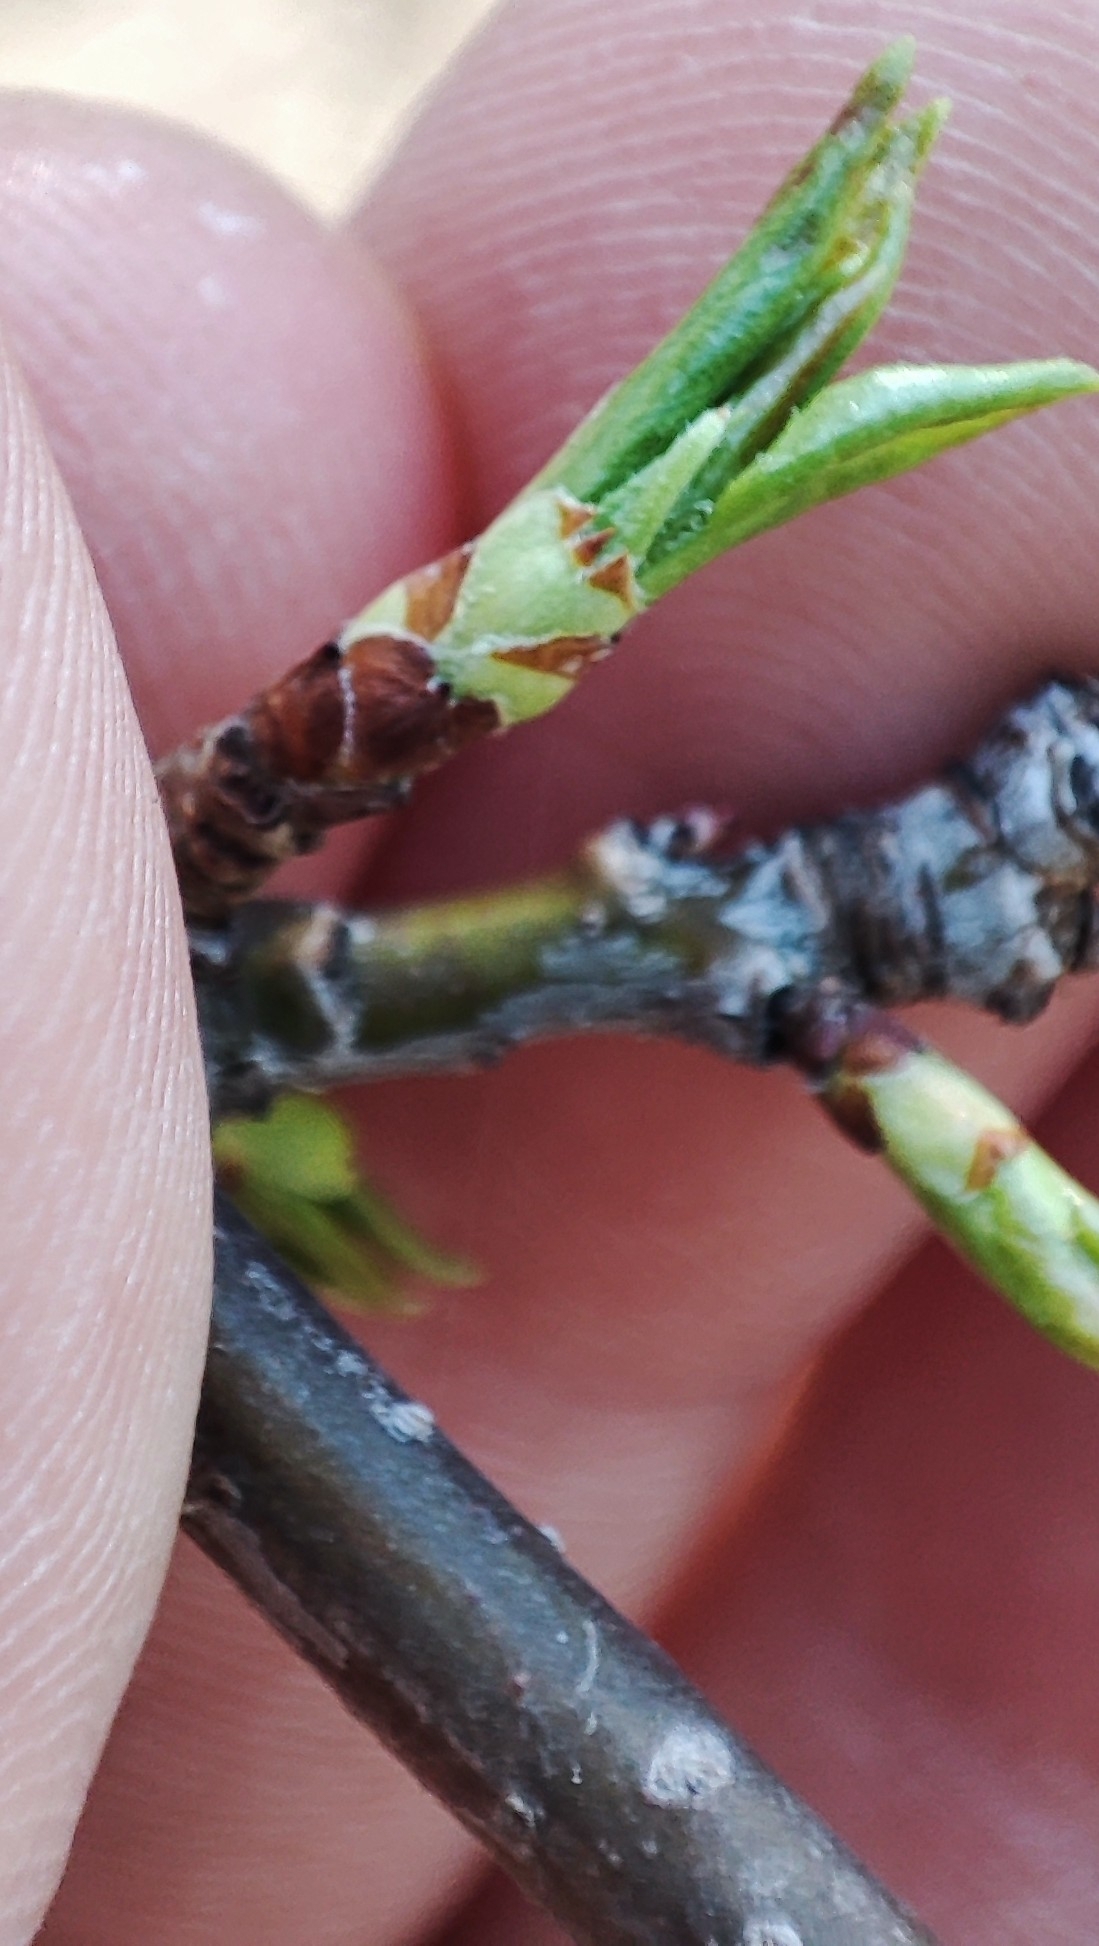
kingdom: Plantae
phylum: Tracheophyta
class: Magnoliopsida
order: Rosales
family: Rosaceae
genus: Malus
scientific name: Malus baccata
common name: Siberian crab
